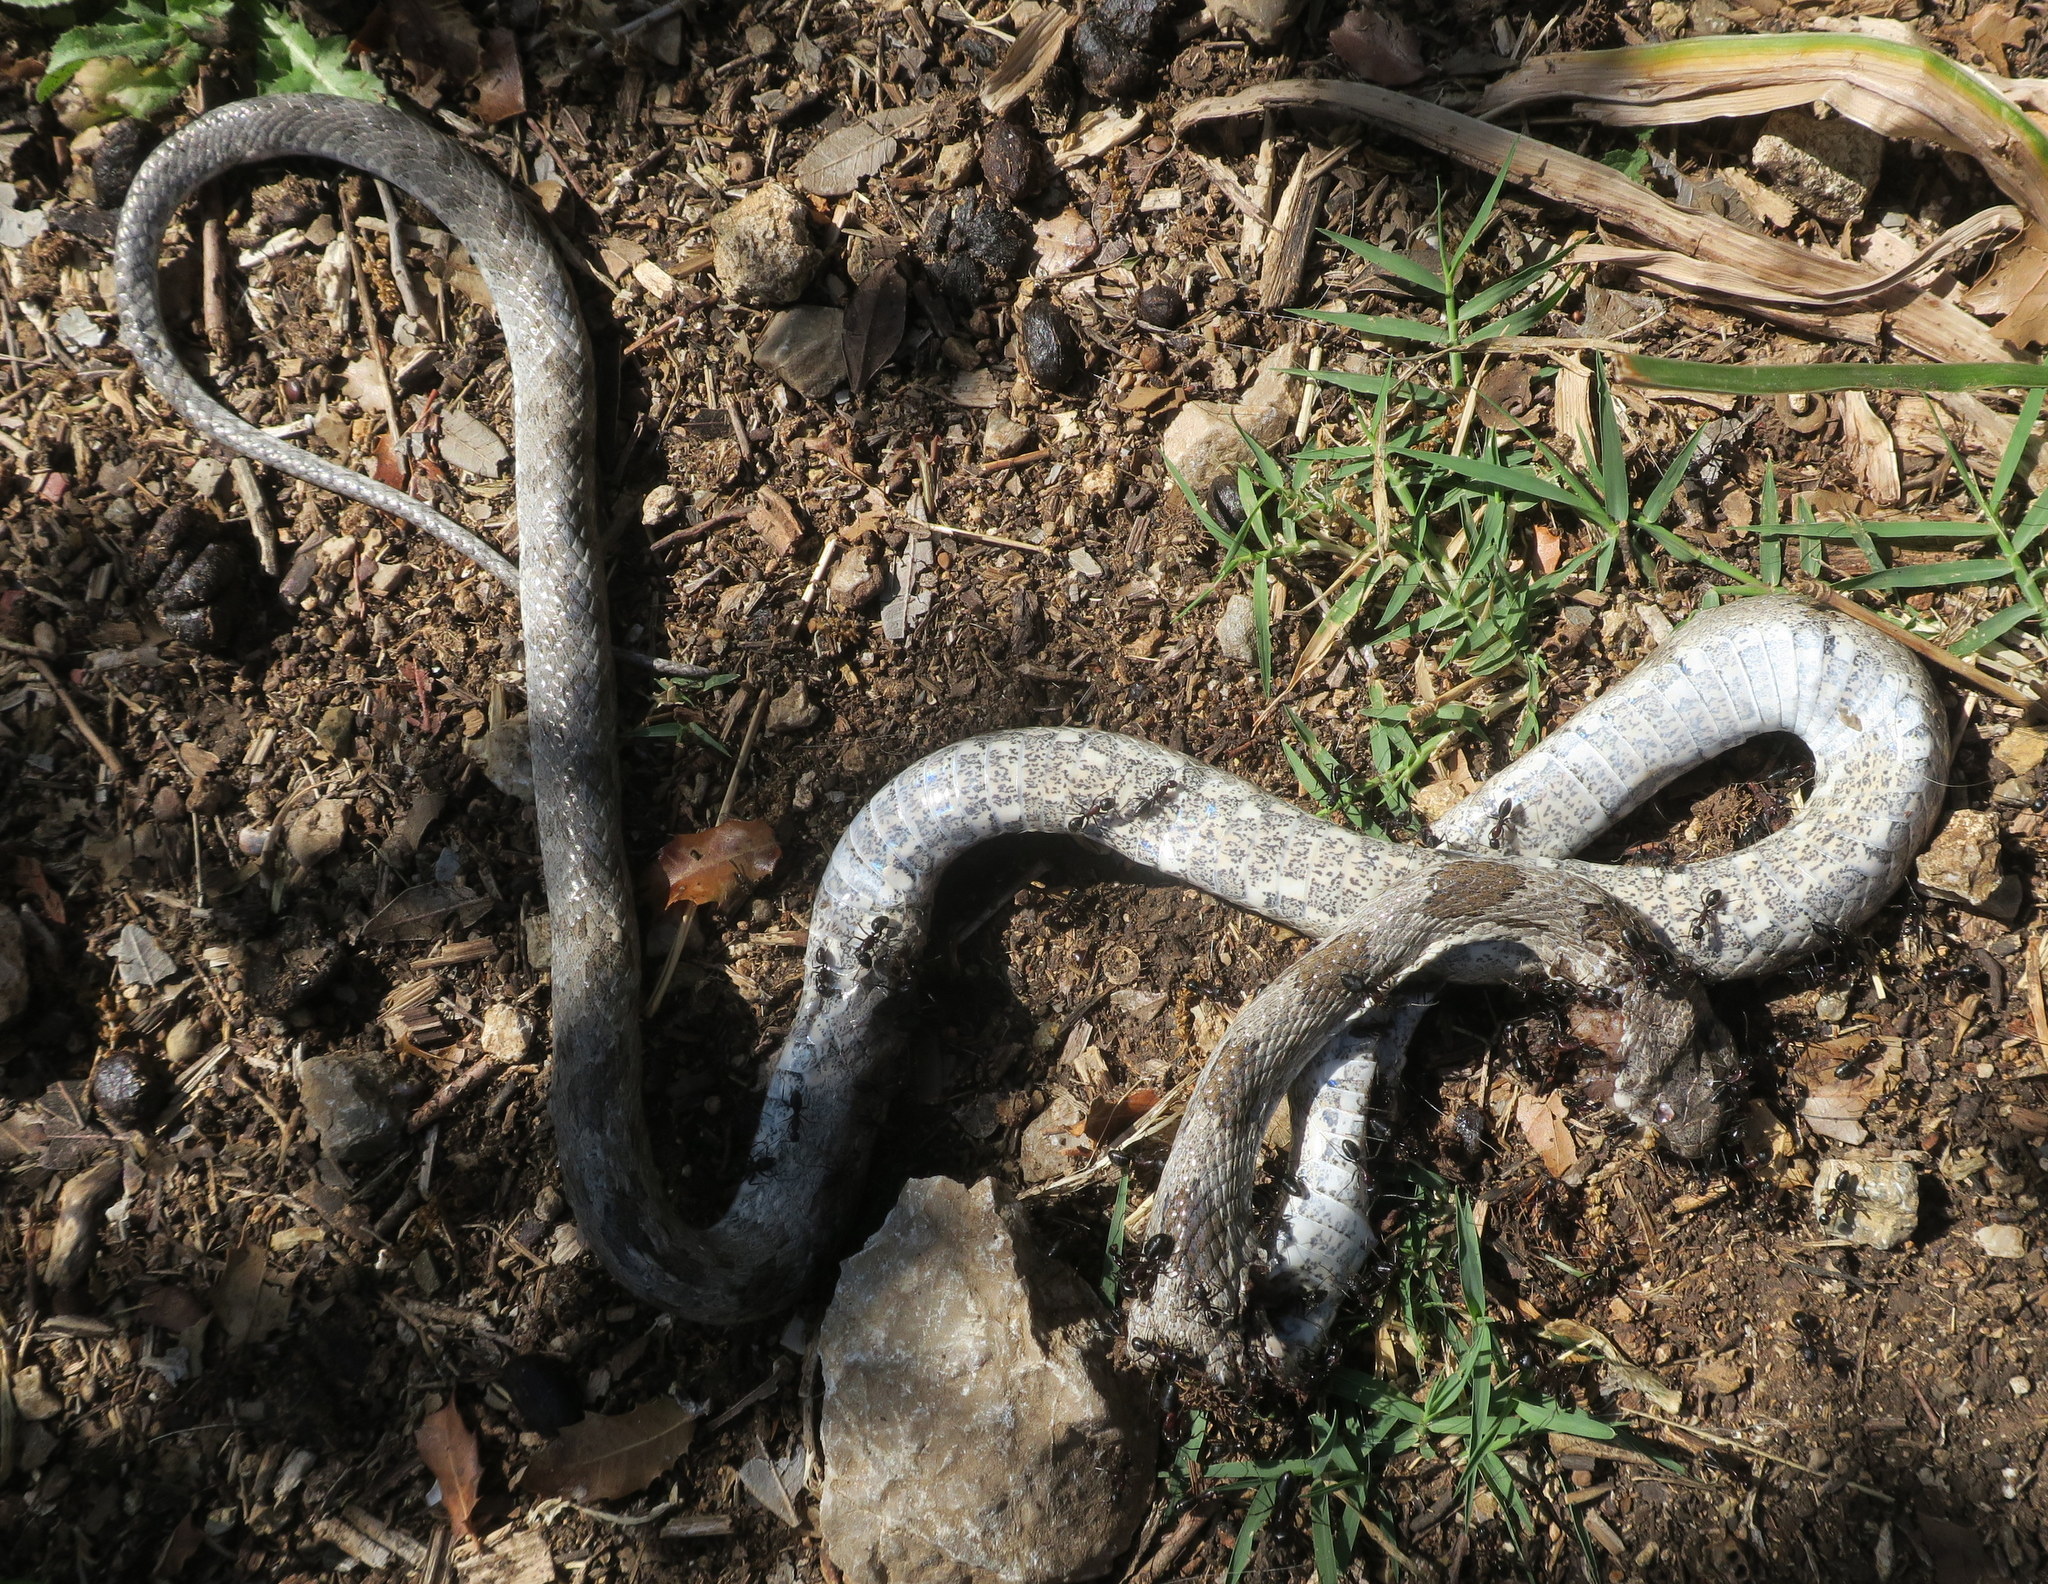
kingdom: Animalia
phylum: Chordata
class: Squamata
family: Colubridae
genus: Telescopus
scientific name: Telescopus fallax
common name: Cat snake
